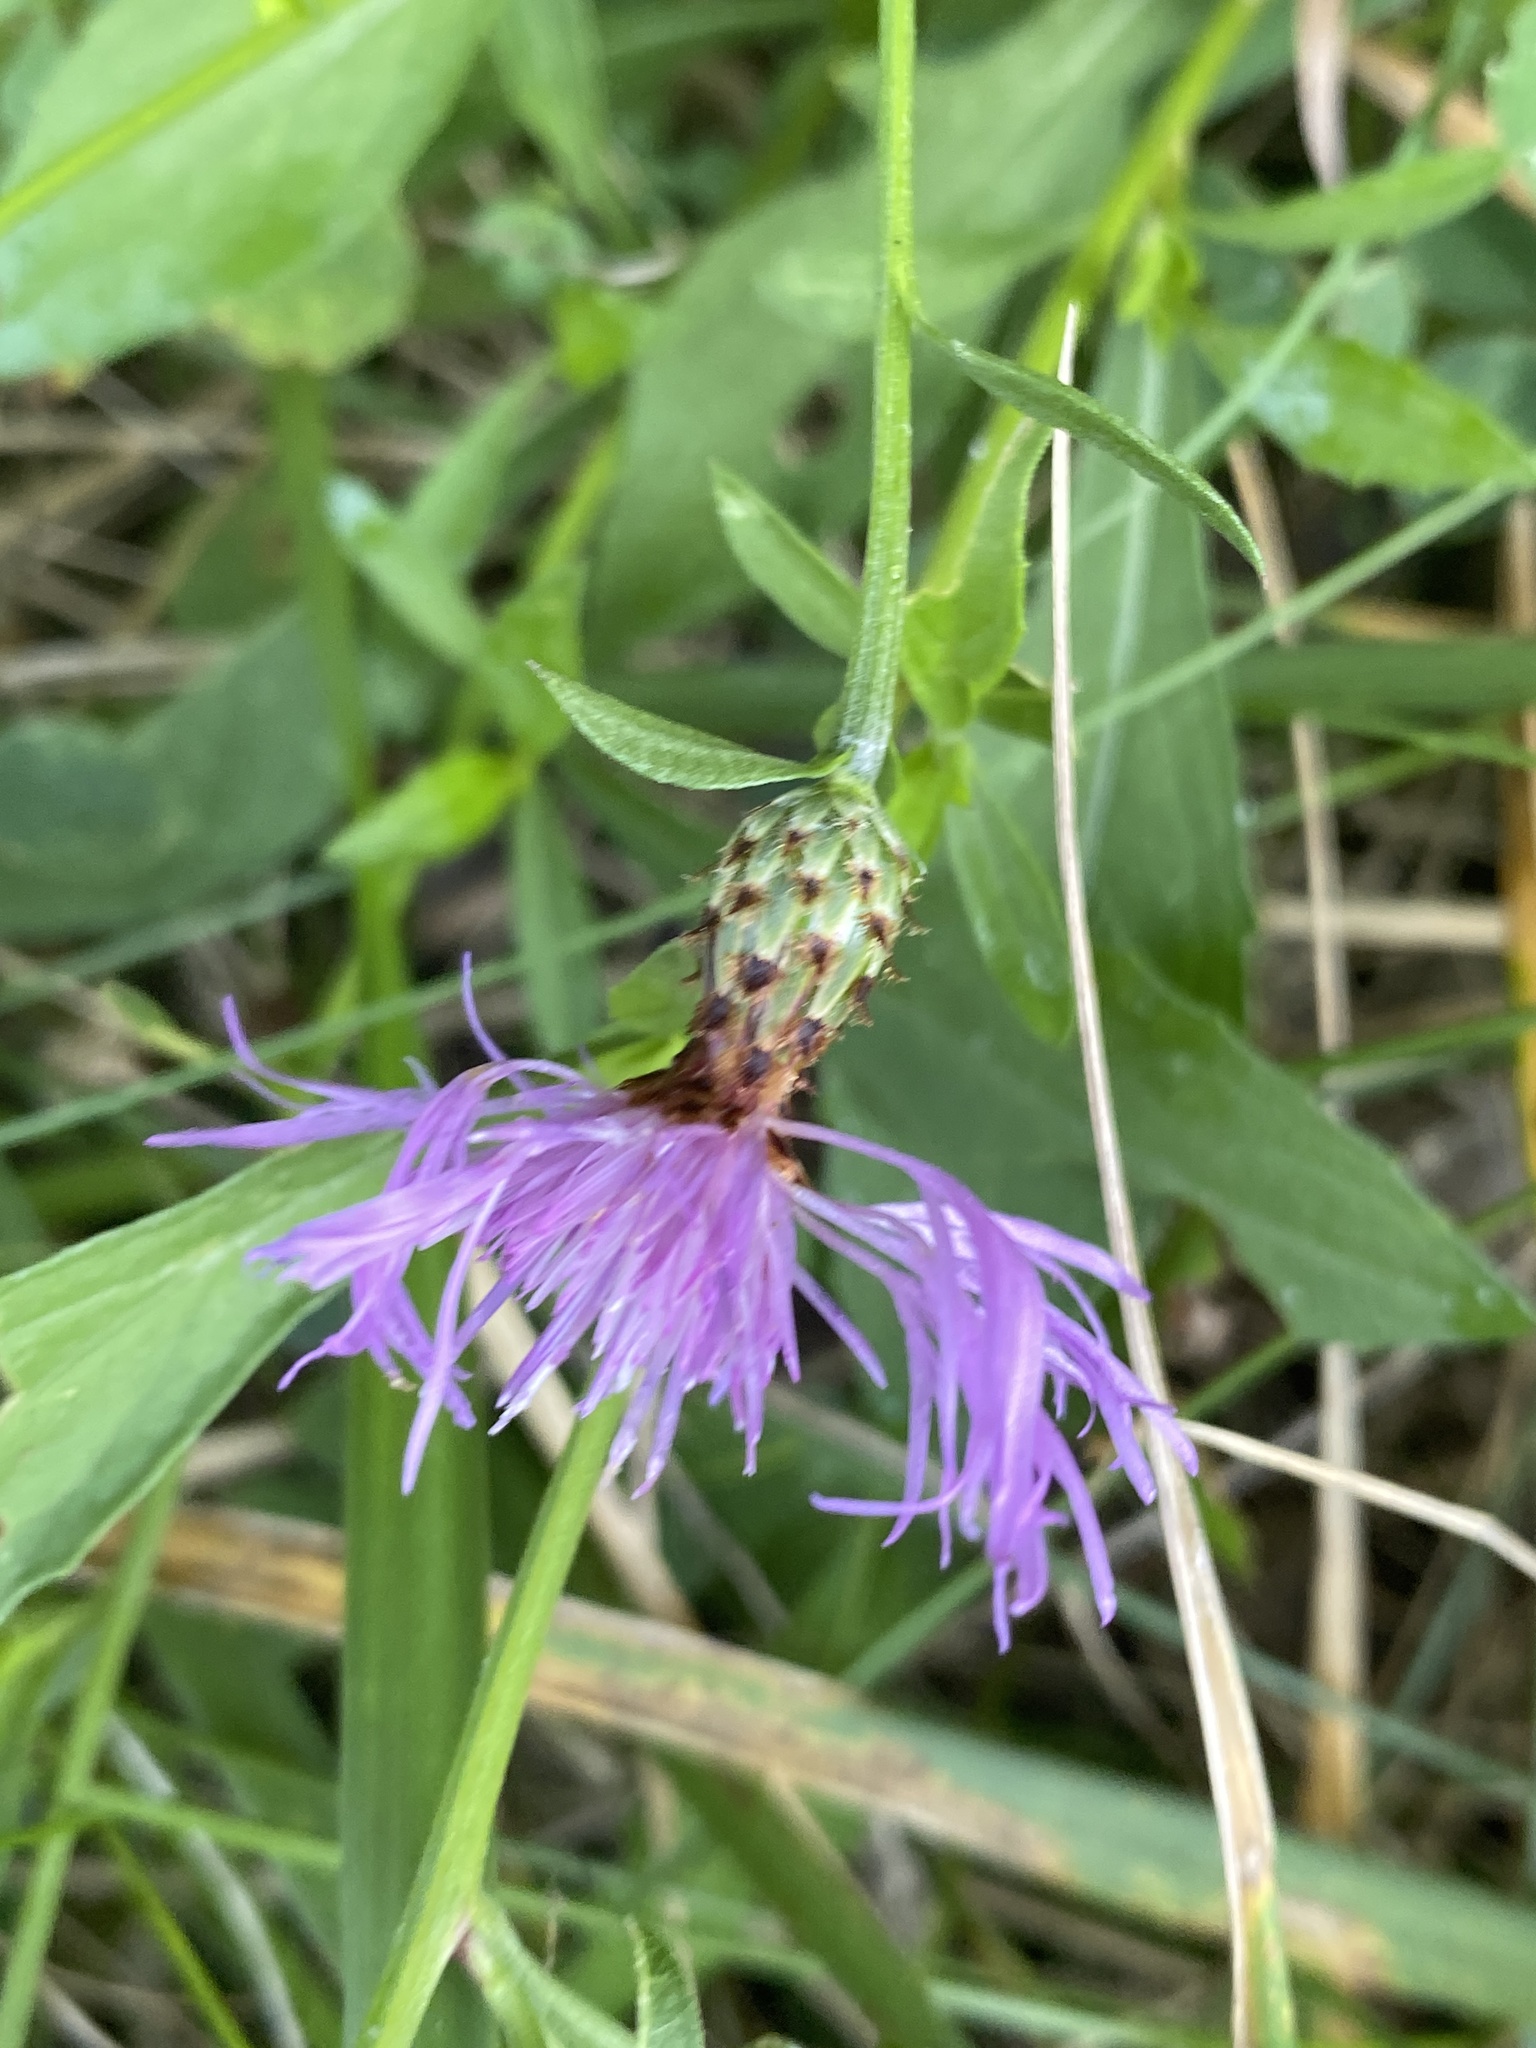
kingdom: Plantae
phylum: Tracheophyta
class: Magnoliopsida
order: Asterales
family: Asteraceae
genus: Centaurea
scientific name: Centaurea nigrescens
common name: Tyrol knapweed
